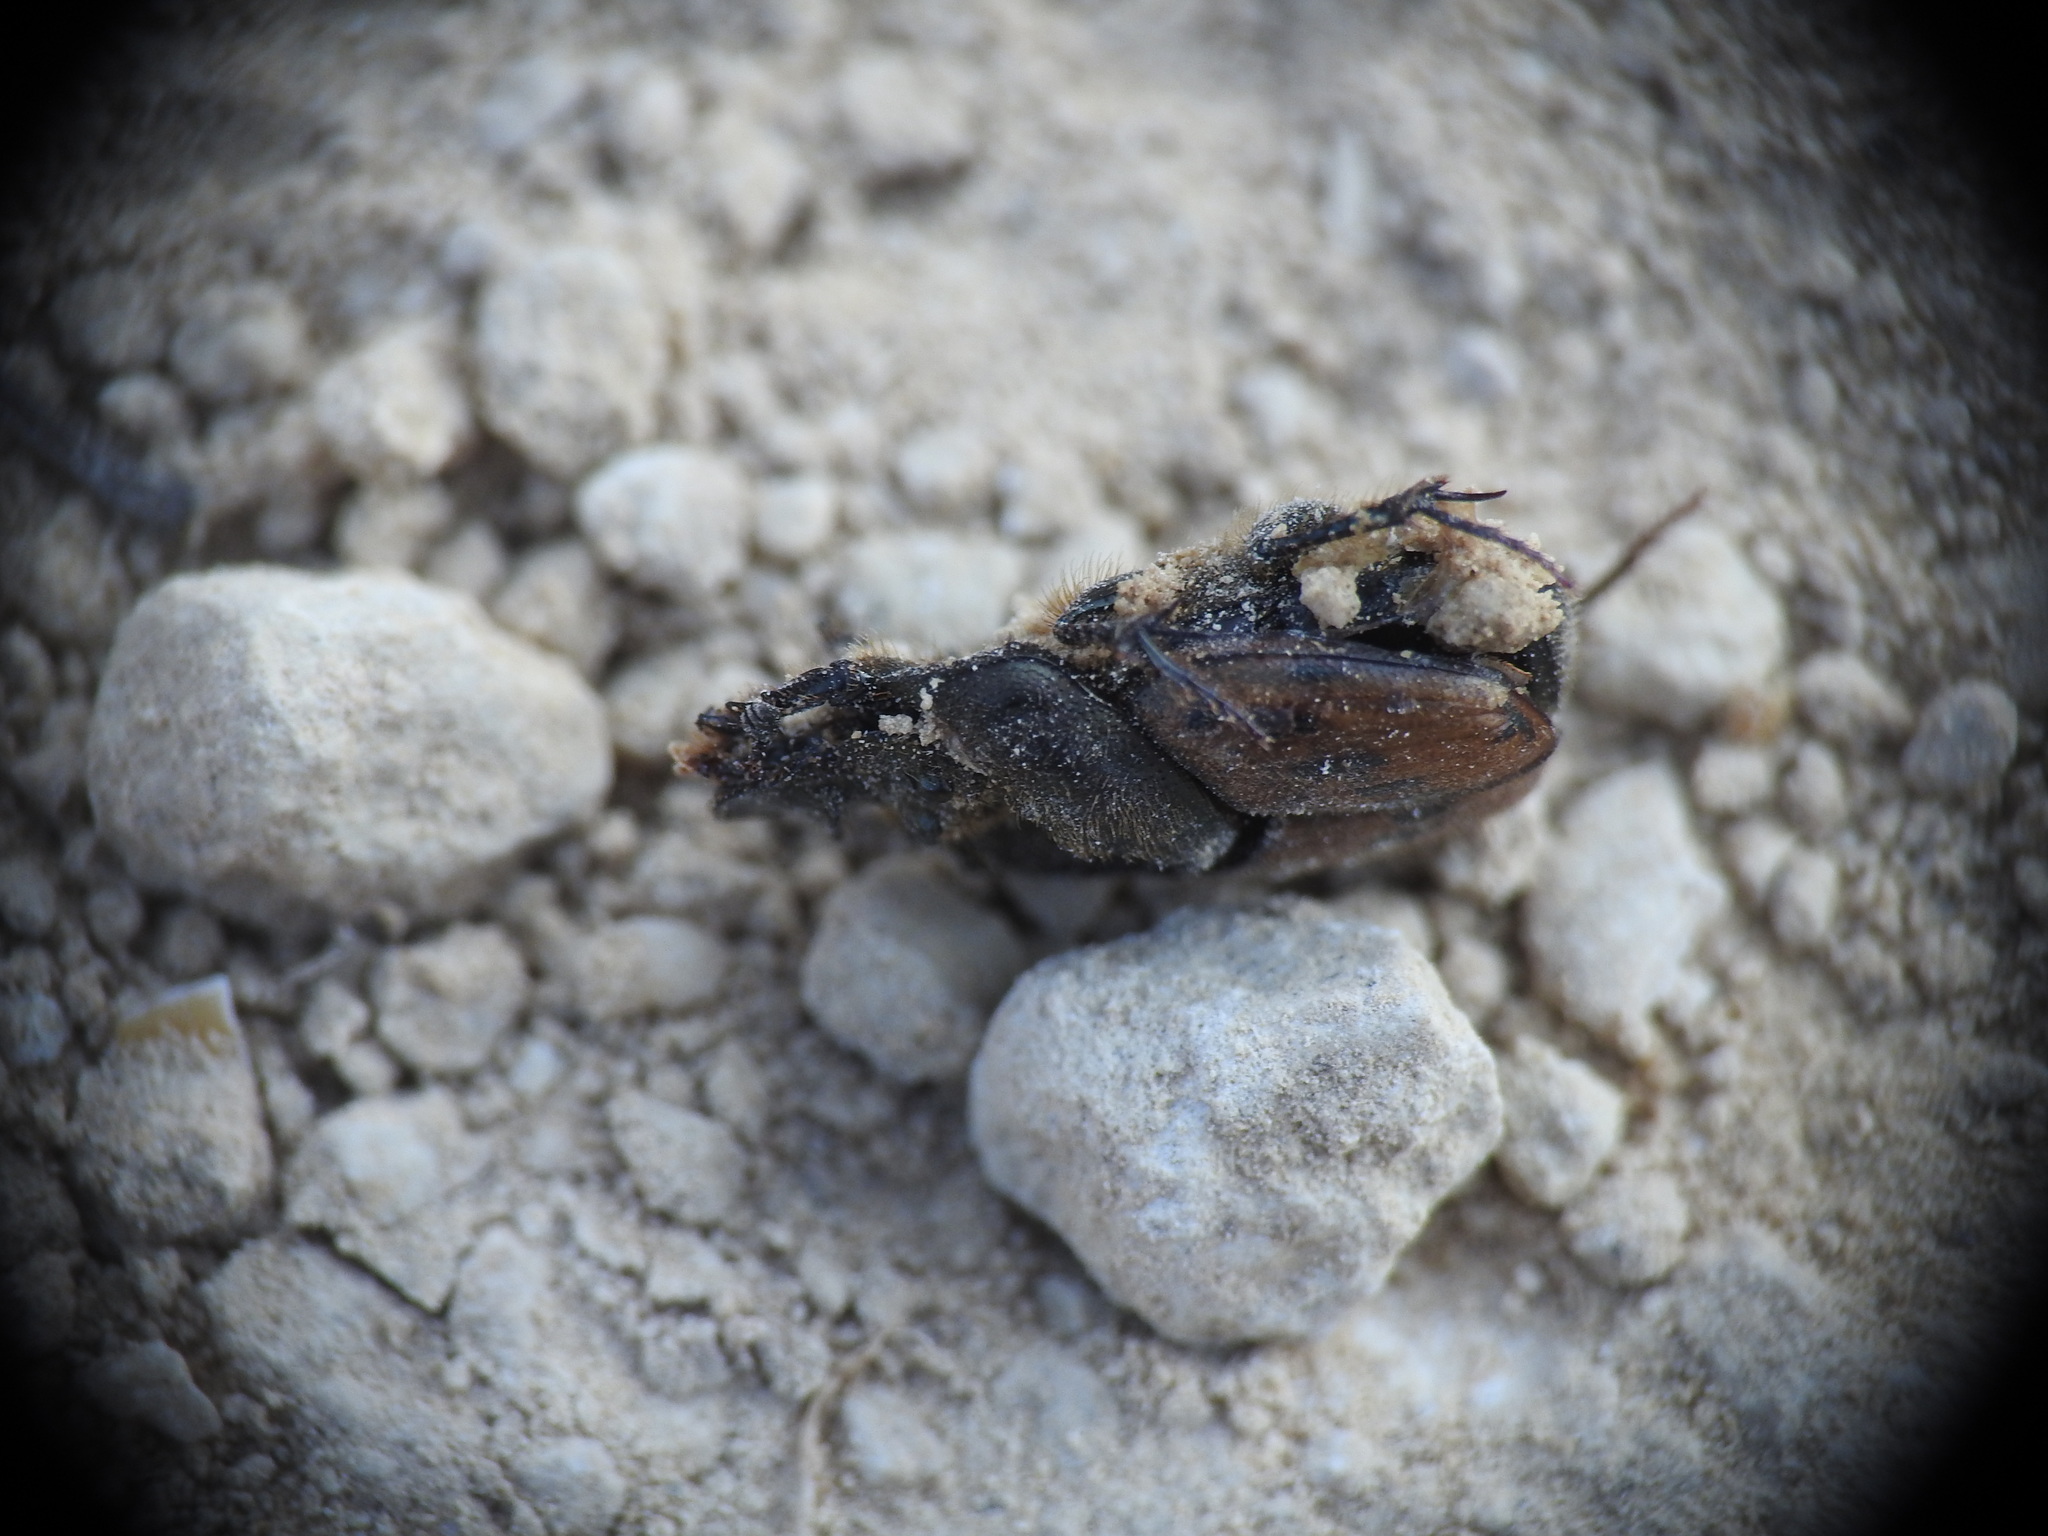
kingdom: Animalia
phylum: Arthropoda
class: Insecta
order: Coleoptera
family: Scarabaeidae
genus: Onthophagus
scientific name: Onthophagus lemur
